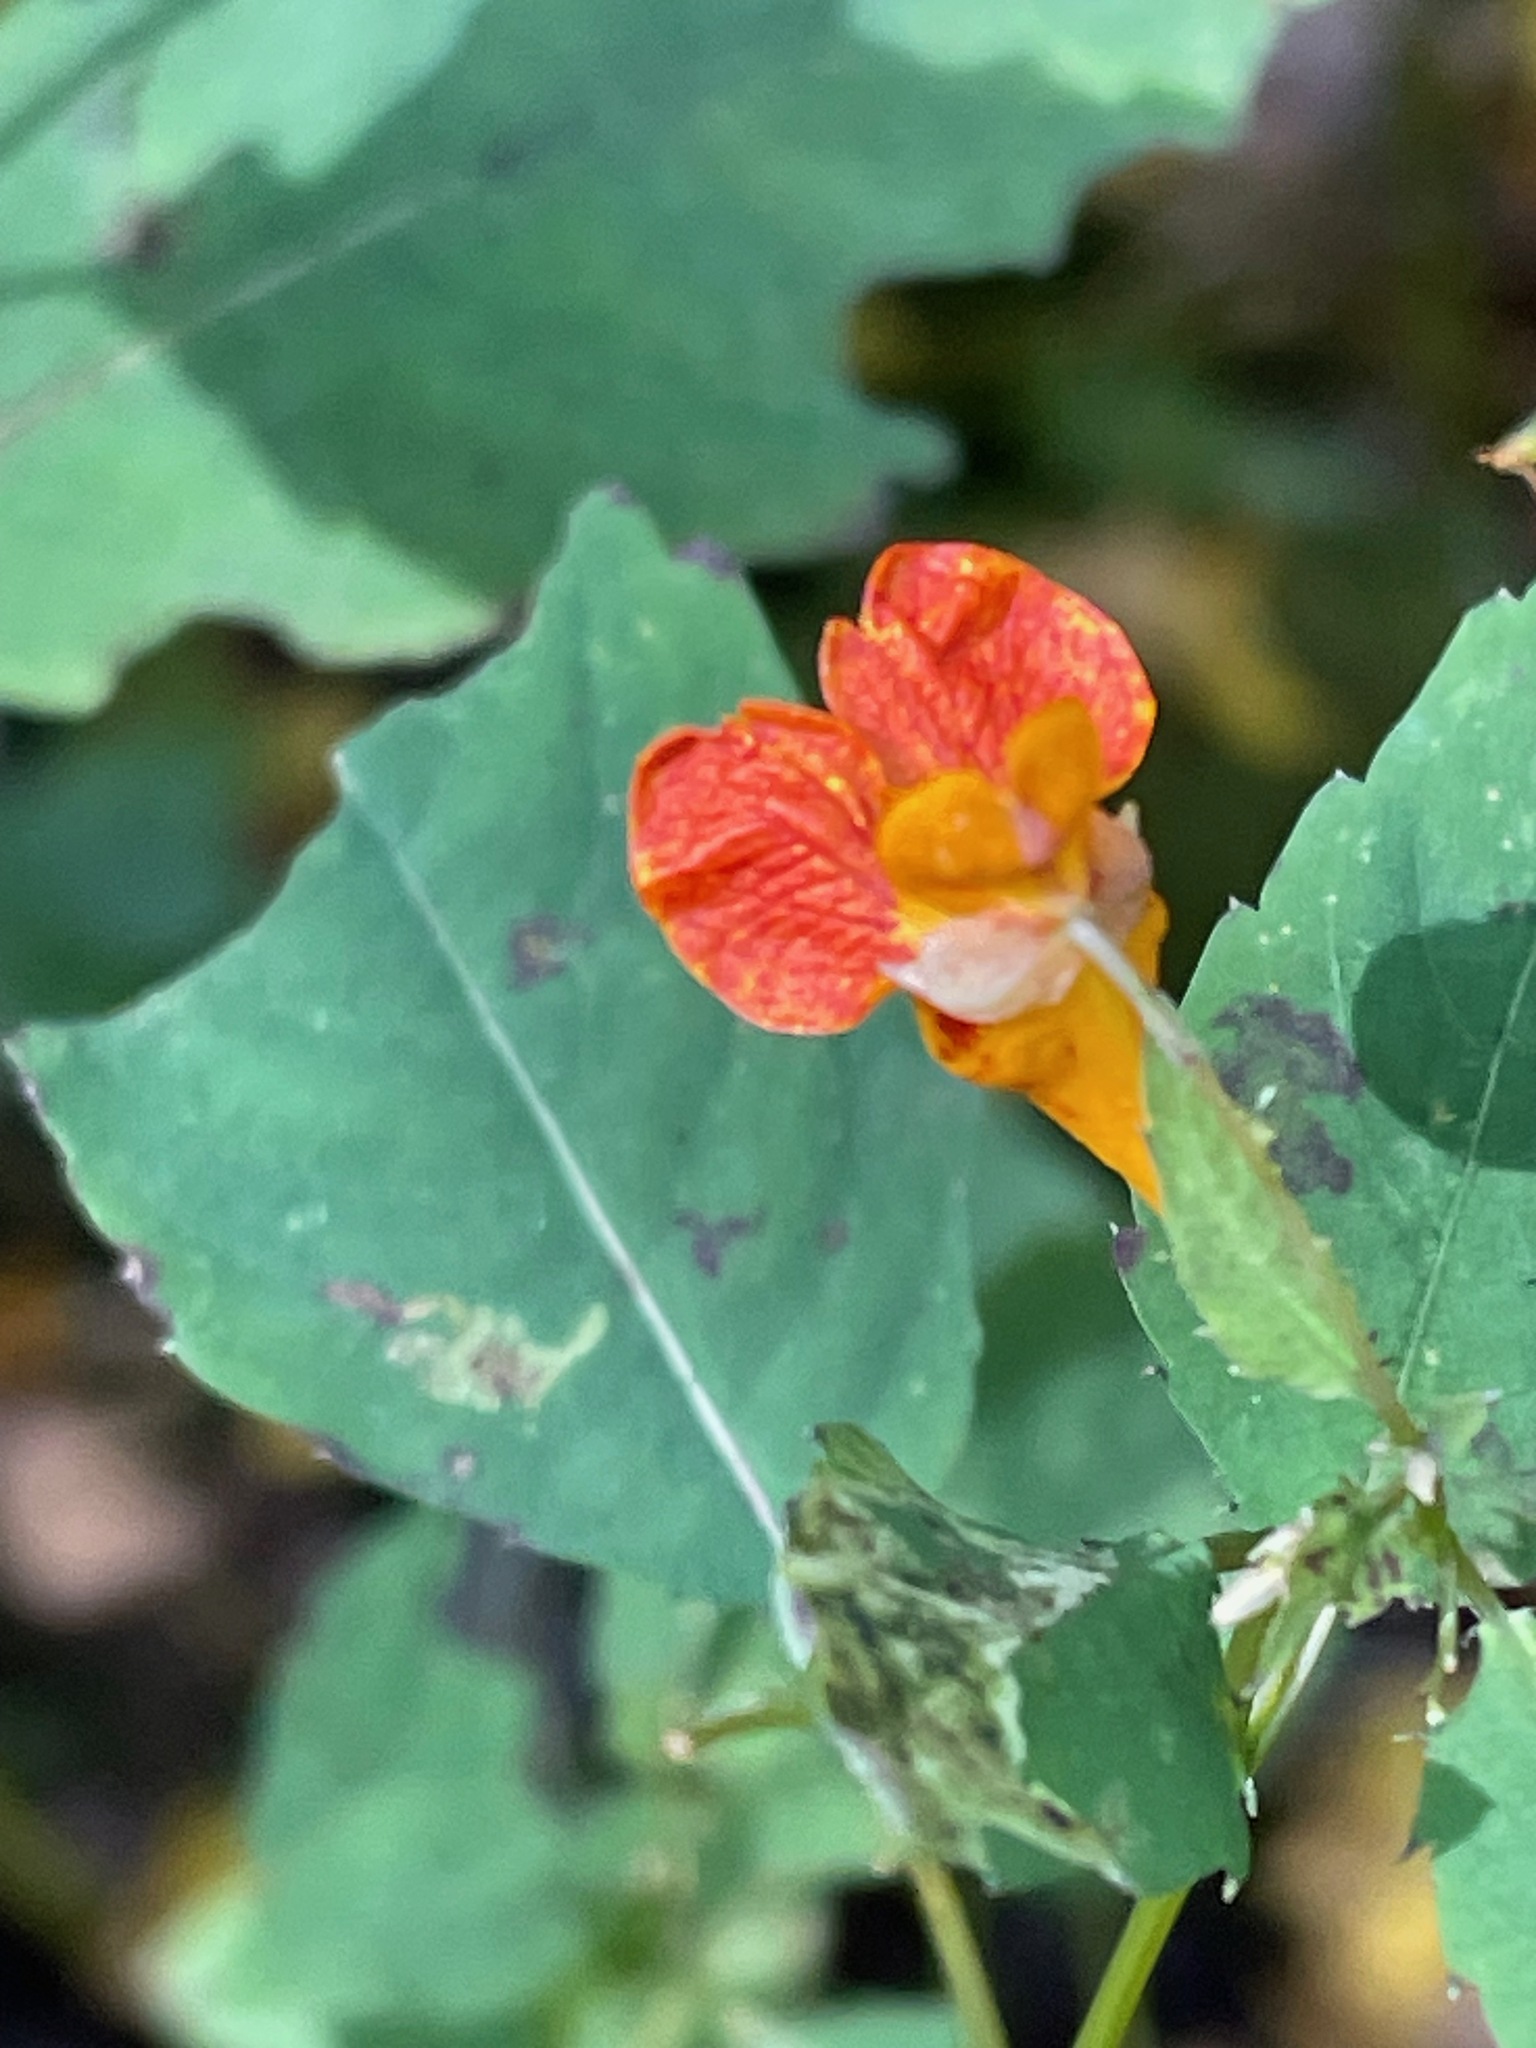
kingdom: Plantae
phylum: Tracheophyta
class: Magnoliopsida
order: Ericales
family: Balsaminaceae
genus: Impatiens
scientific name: Impatiens capensis
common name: Orange balsam
